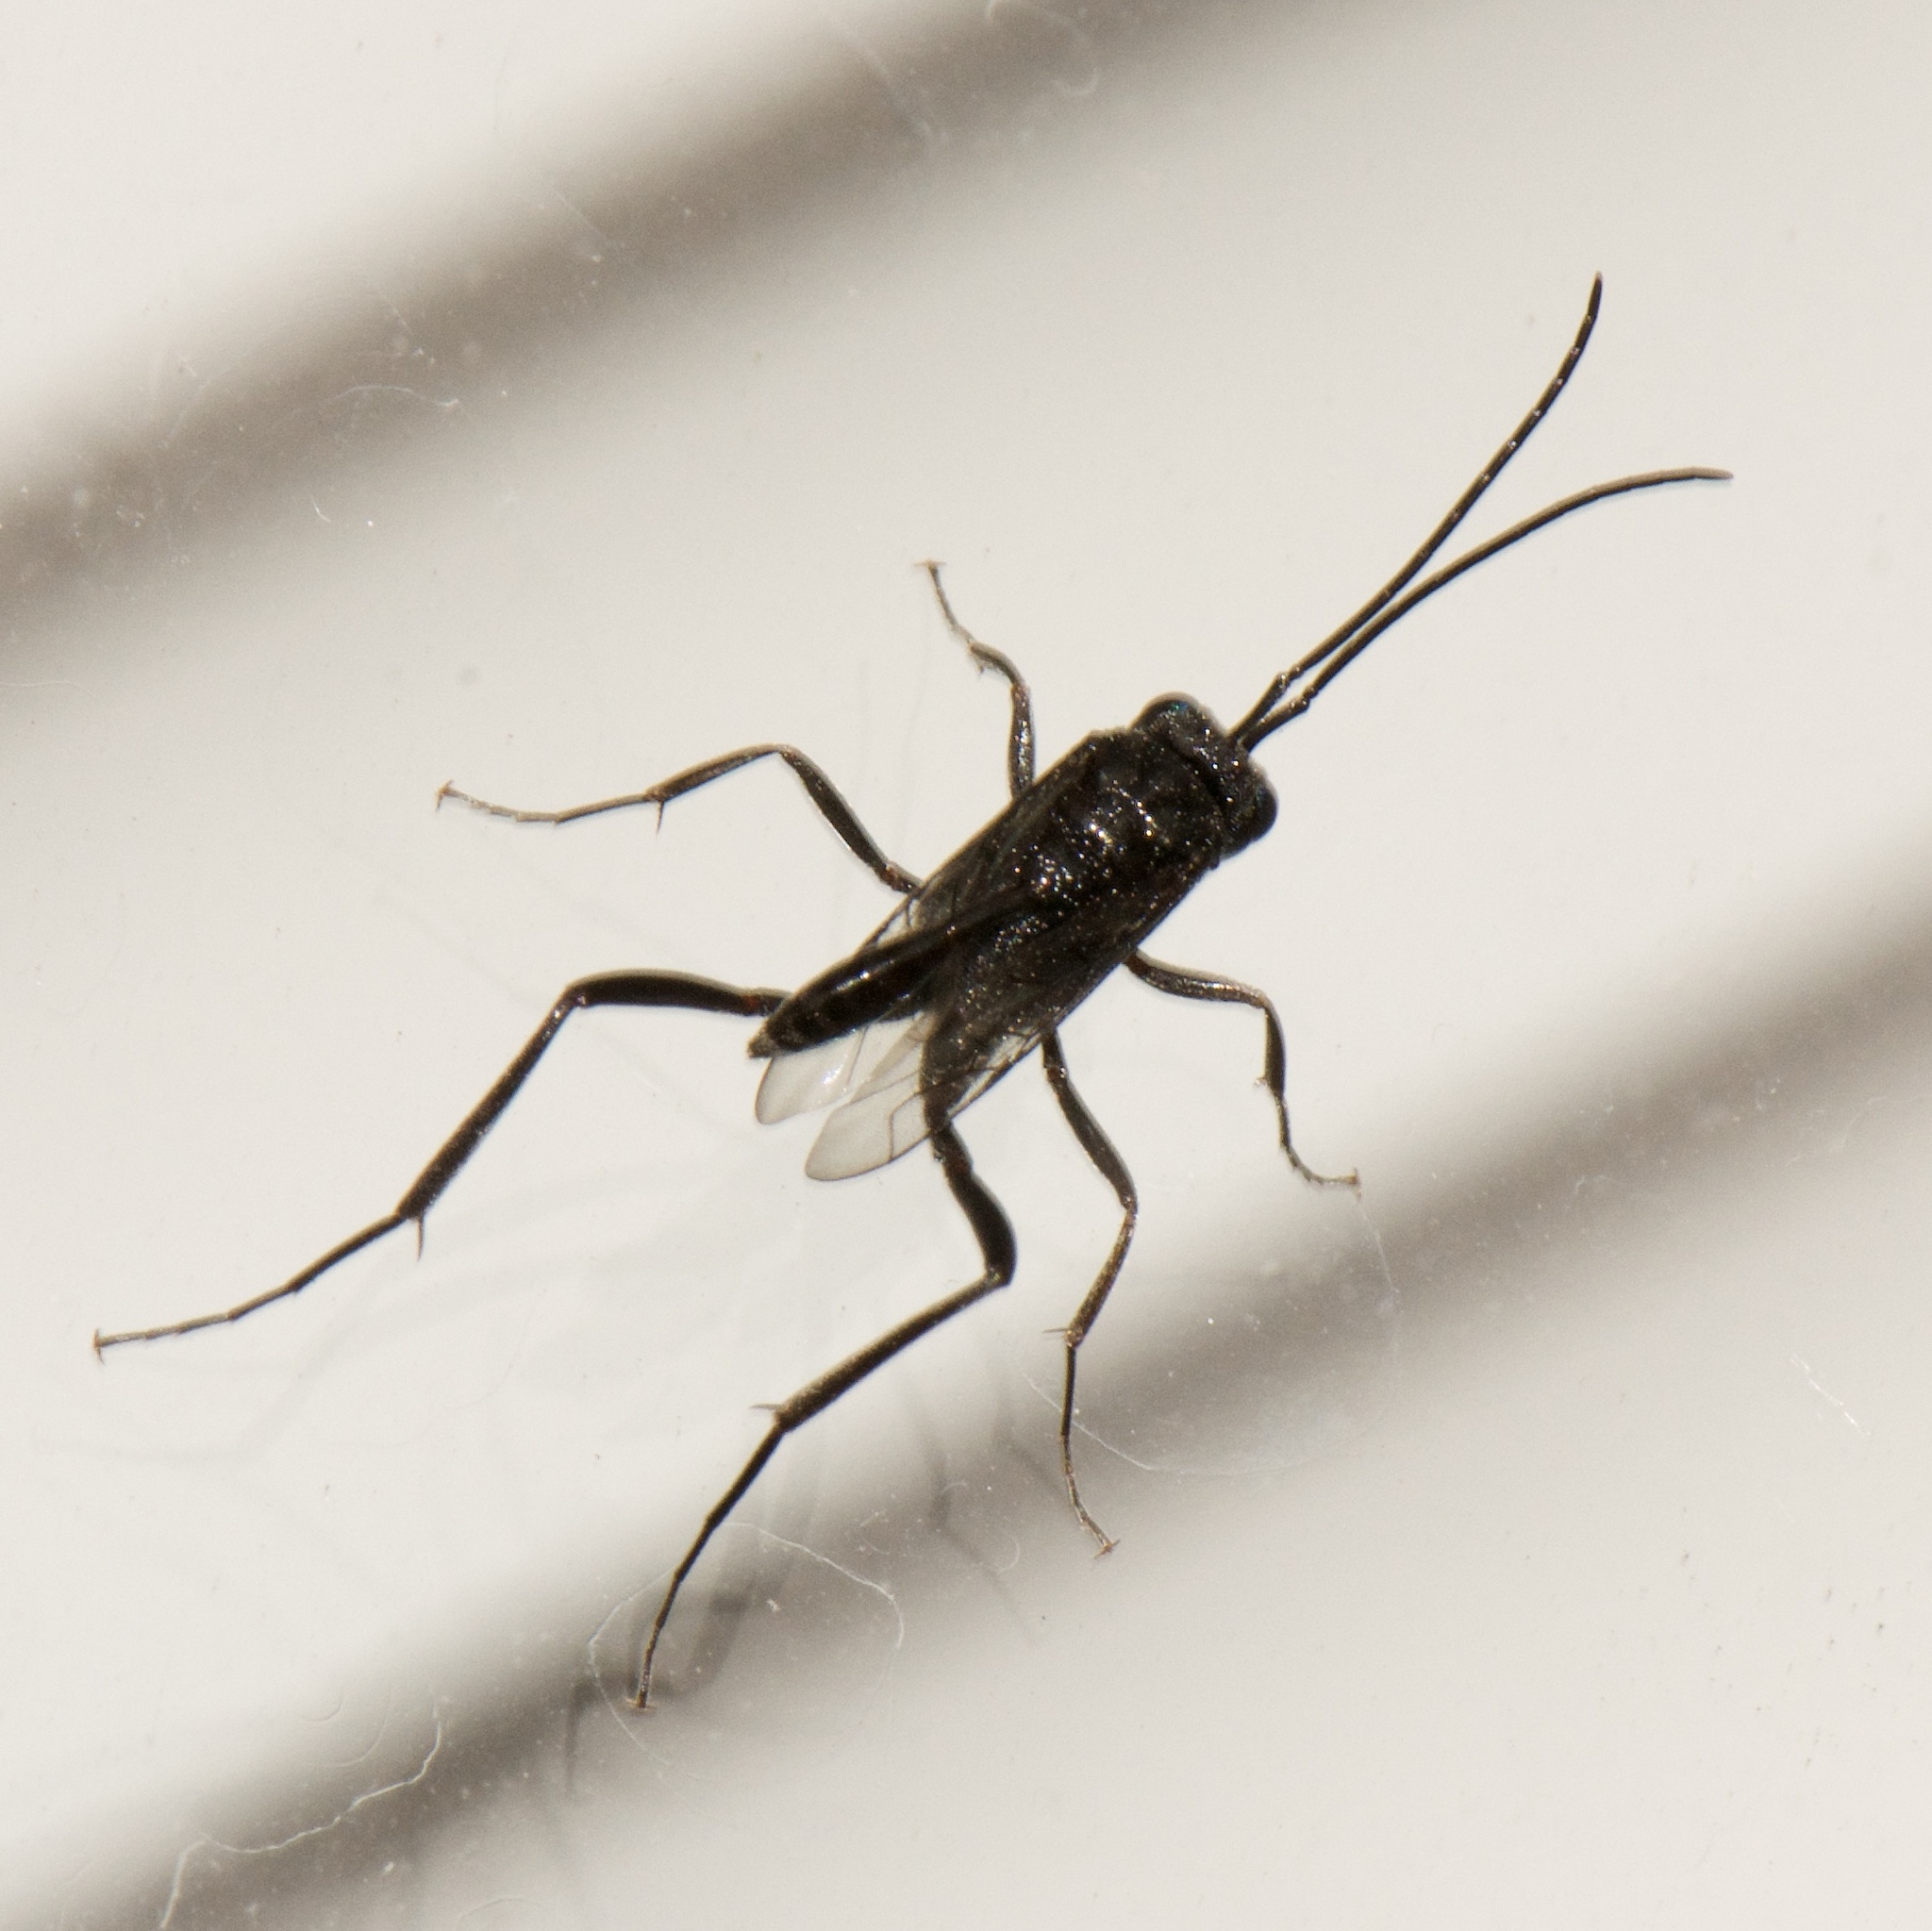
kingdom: Animalia
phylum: Arthropoda
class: Insecta
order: Hymenoptera
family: Evaniidae
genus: Evania
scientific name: Evania appendigaster
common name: Ensign wasp
